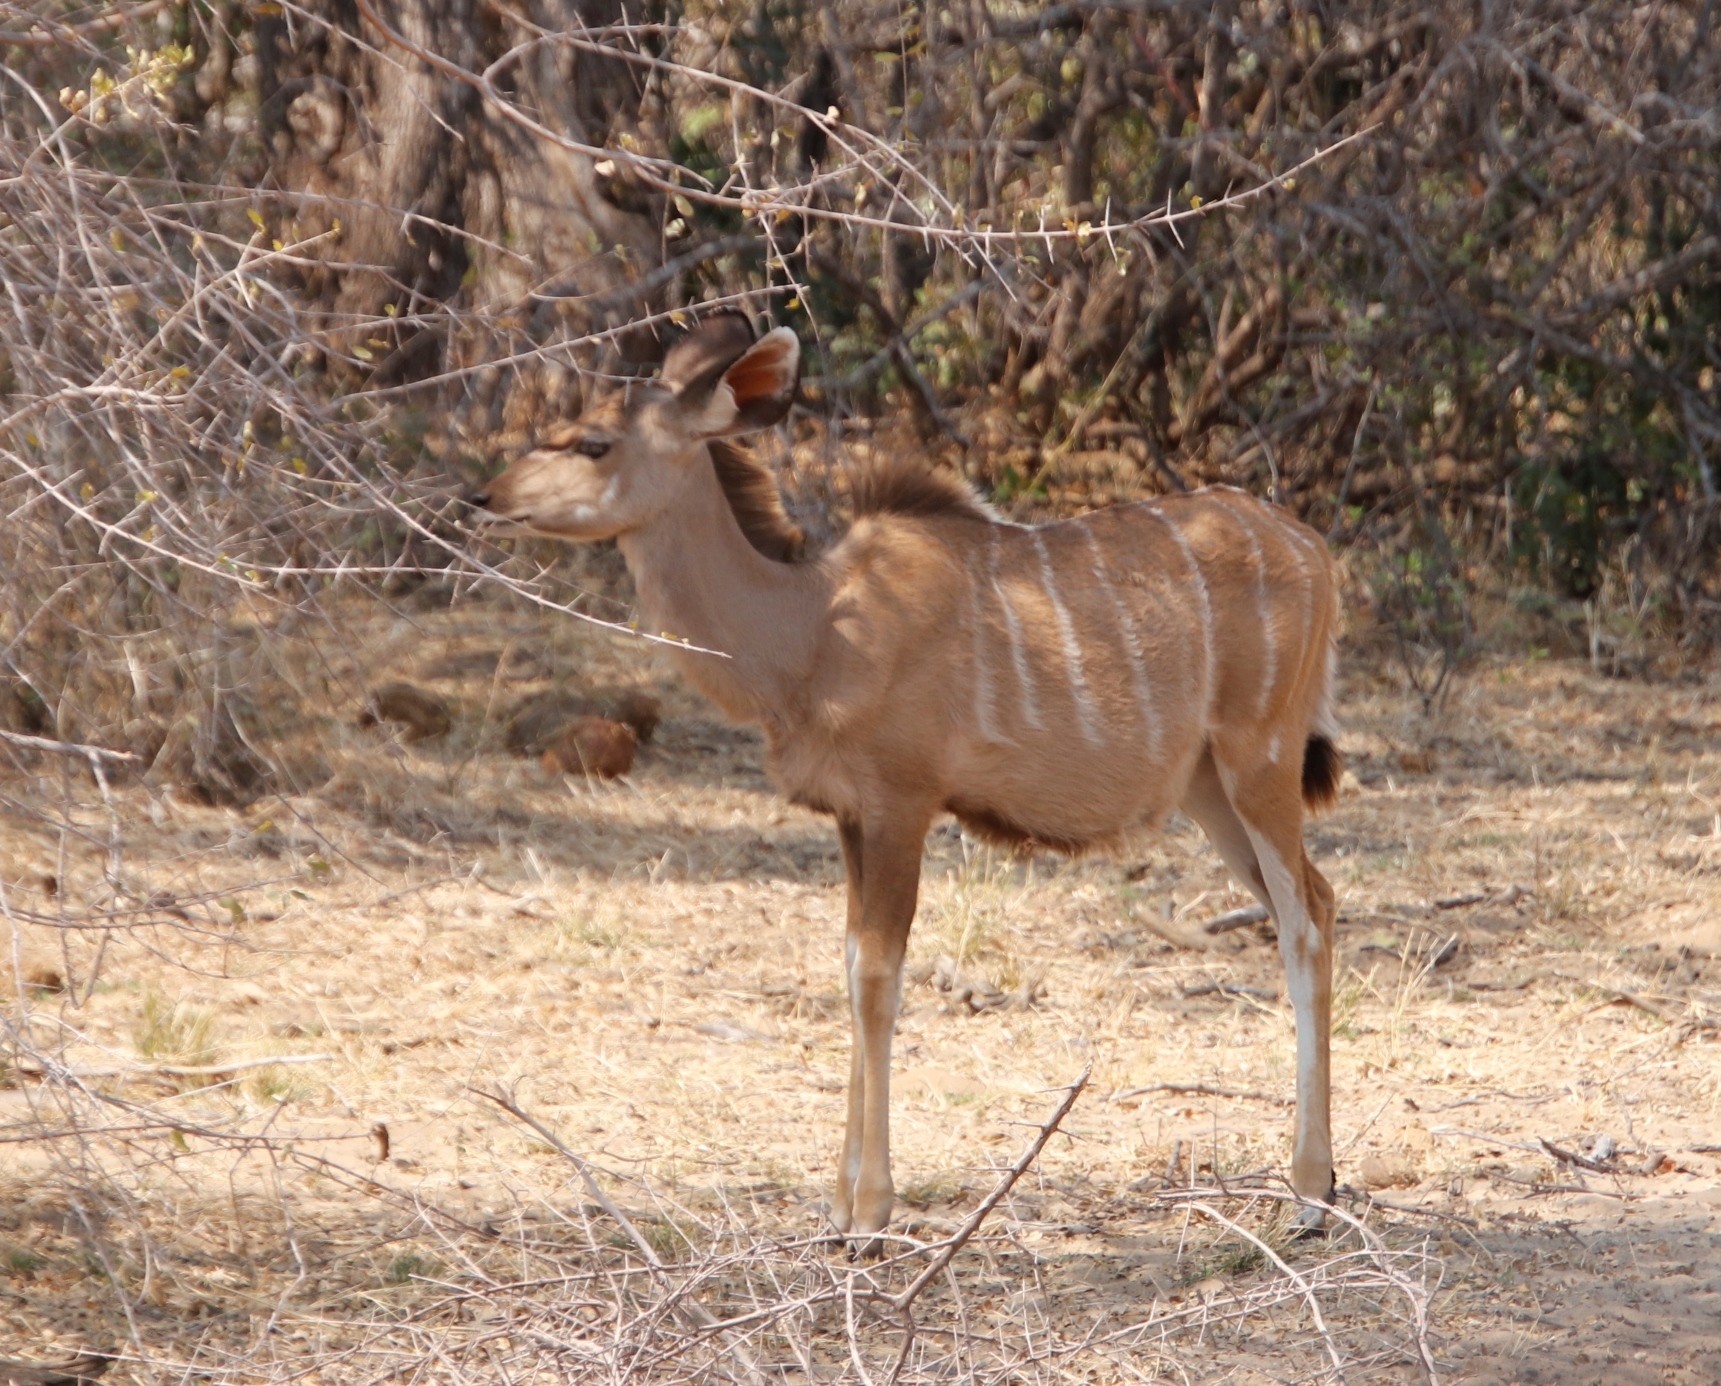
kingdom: Animalia
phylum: Chordata
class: Mammalia
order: Artiodactyla
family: Bovidae
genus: Tragelaphus
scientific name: Tragelaphus strepsiceros
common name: Greater kudu
